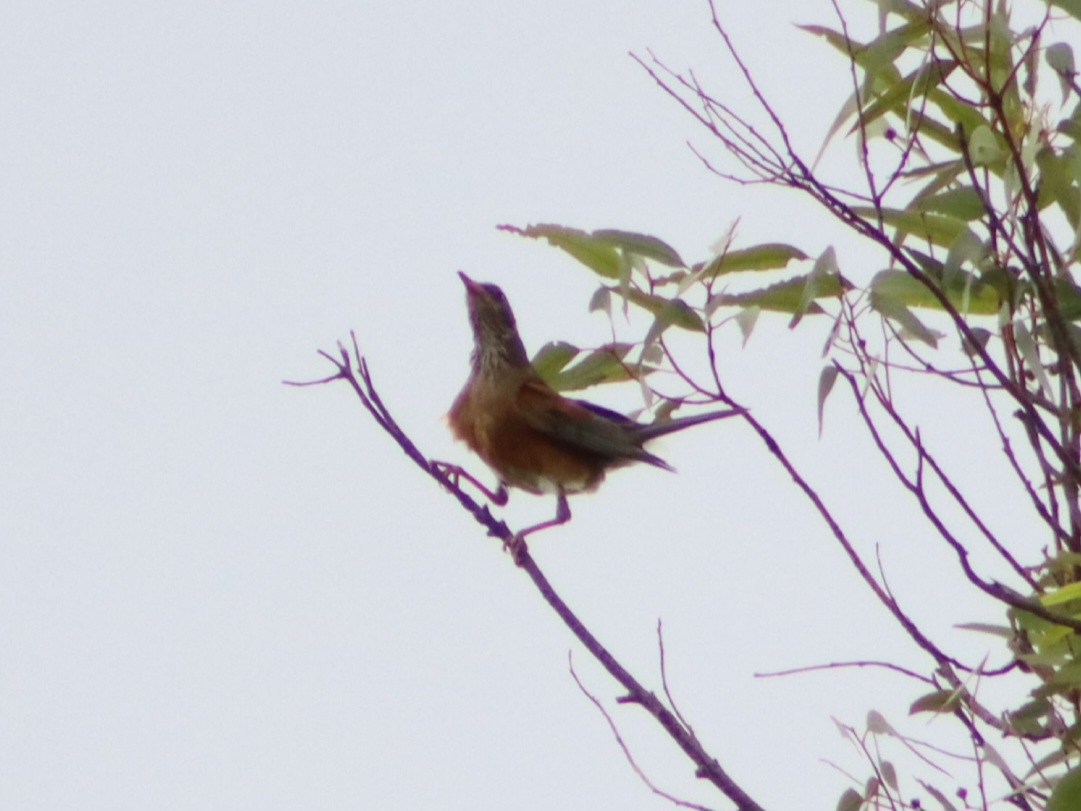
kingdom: Animalia
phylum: Chordata
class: Aves
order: Passeriformes
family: Turdidae
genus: Turdus
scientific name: Turdus rufopalliatus
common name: Rufous-backed robin
